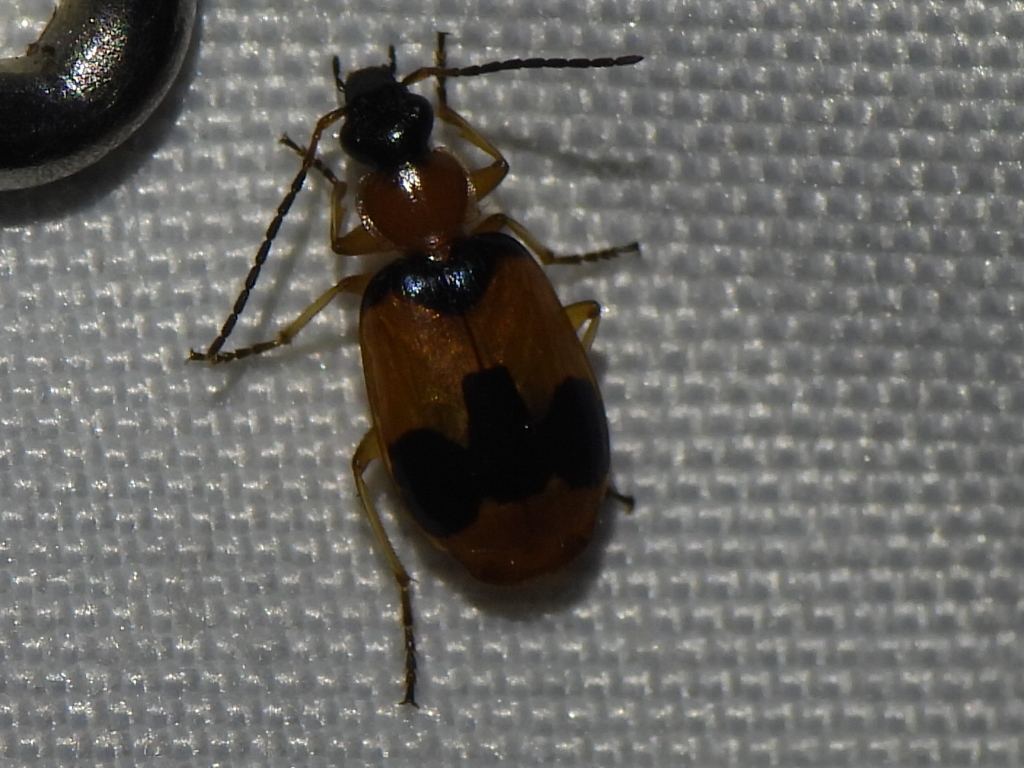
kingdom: Animalia
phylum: Arthropoda
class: Insecta
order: Coleoptera
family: Carabidae
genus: Lebia
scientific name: Lebia pulchella
